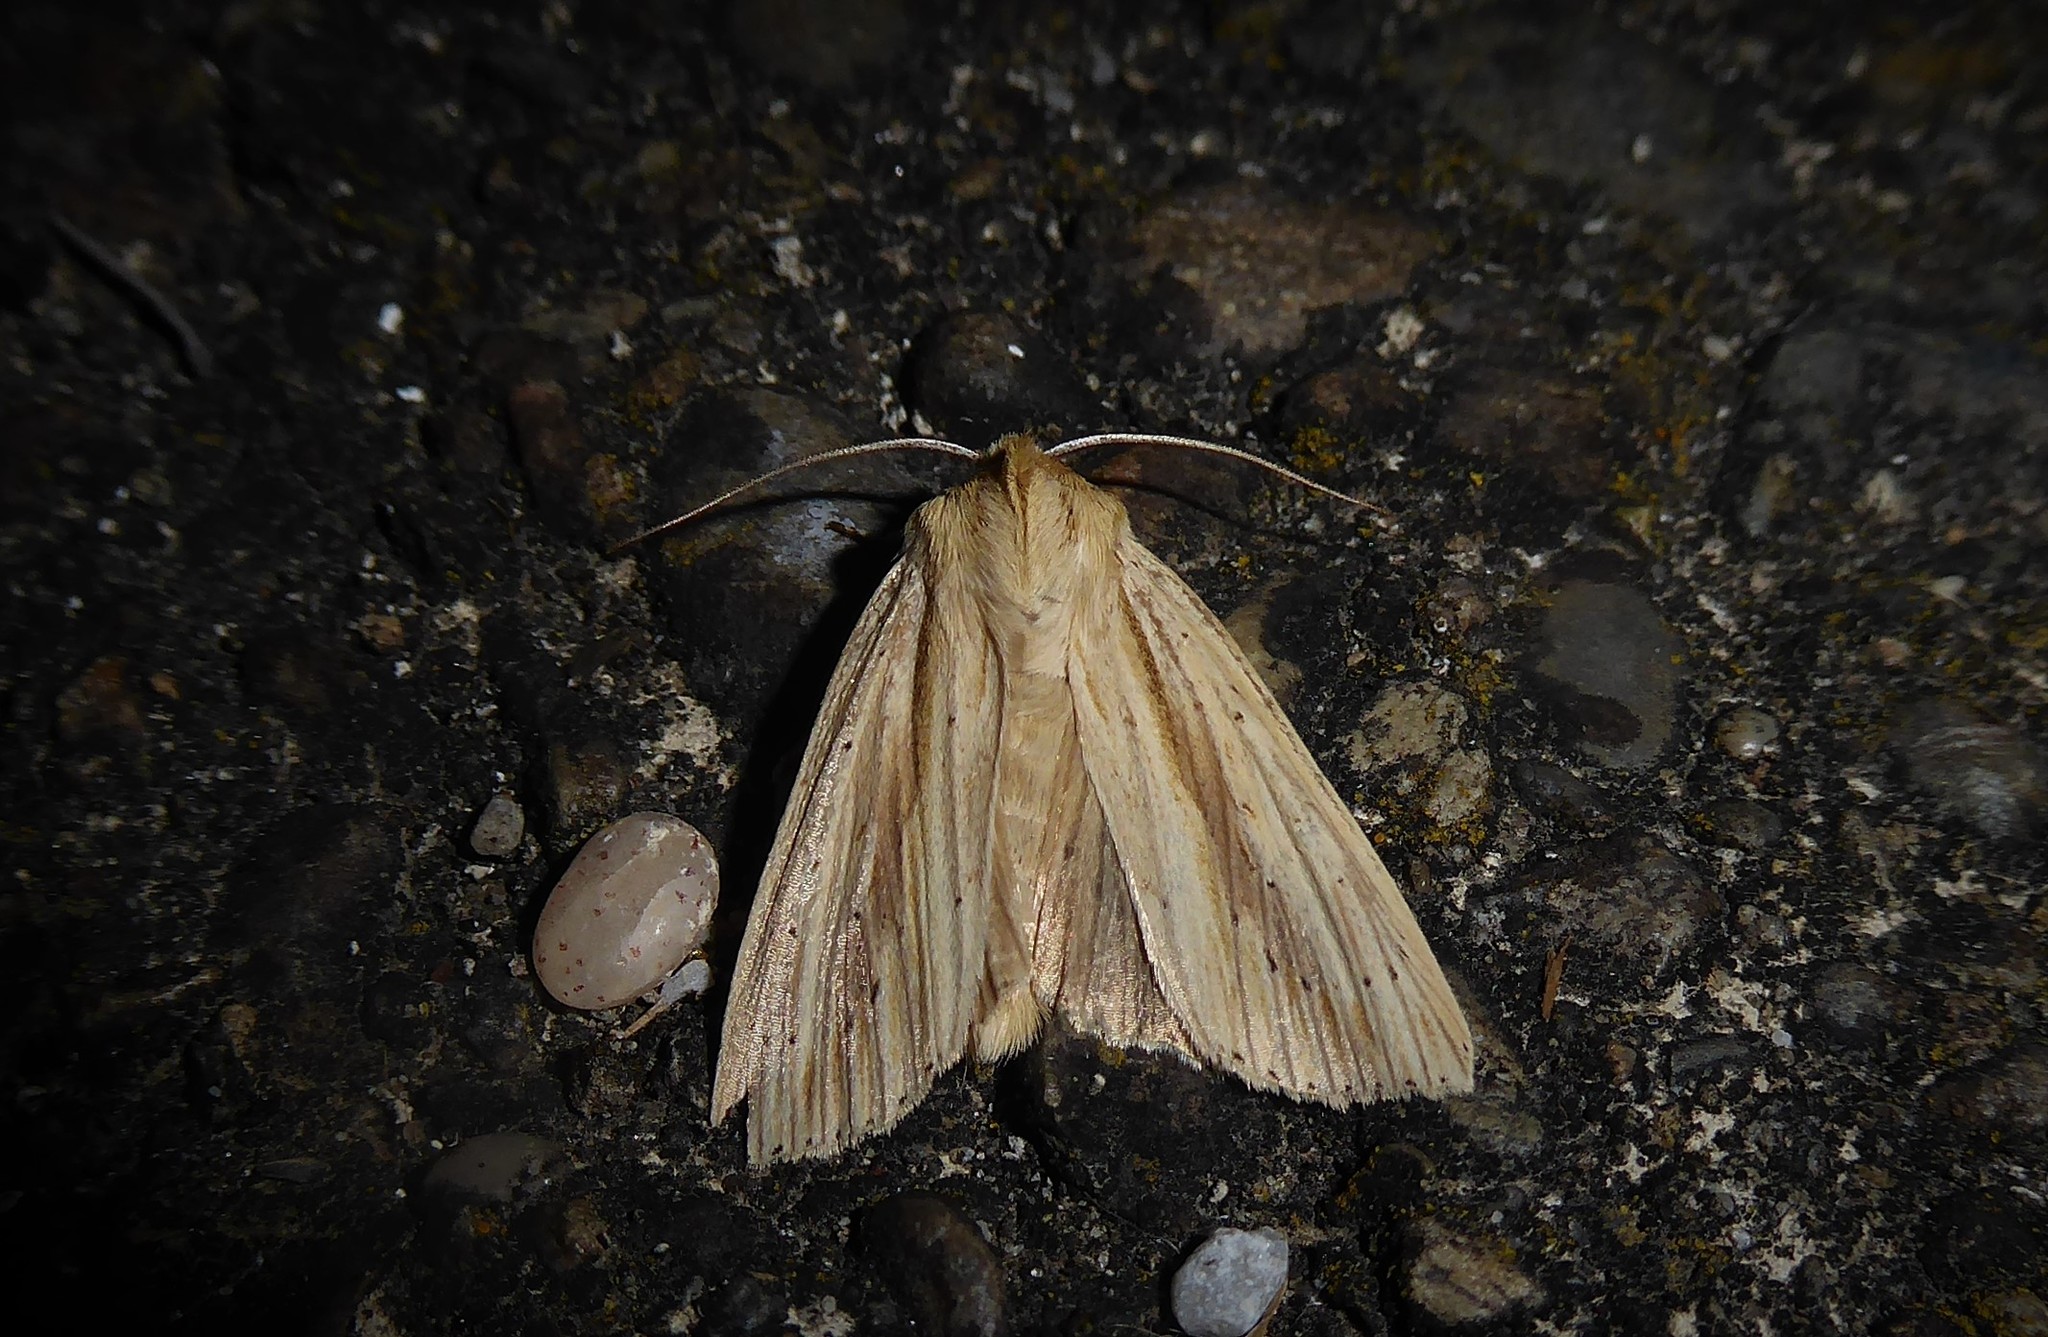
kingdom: Animalia
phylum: Arthropoda
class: Insecta
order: Lepidoptera
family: Noctuidae
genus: Ichneutica
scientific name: Ichneutica semivittata
